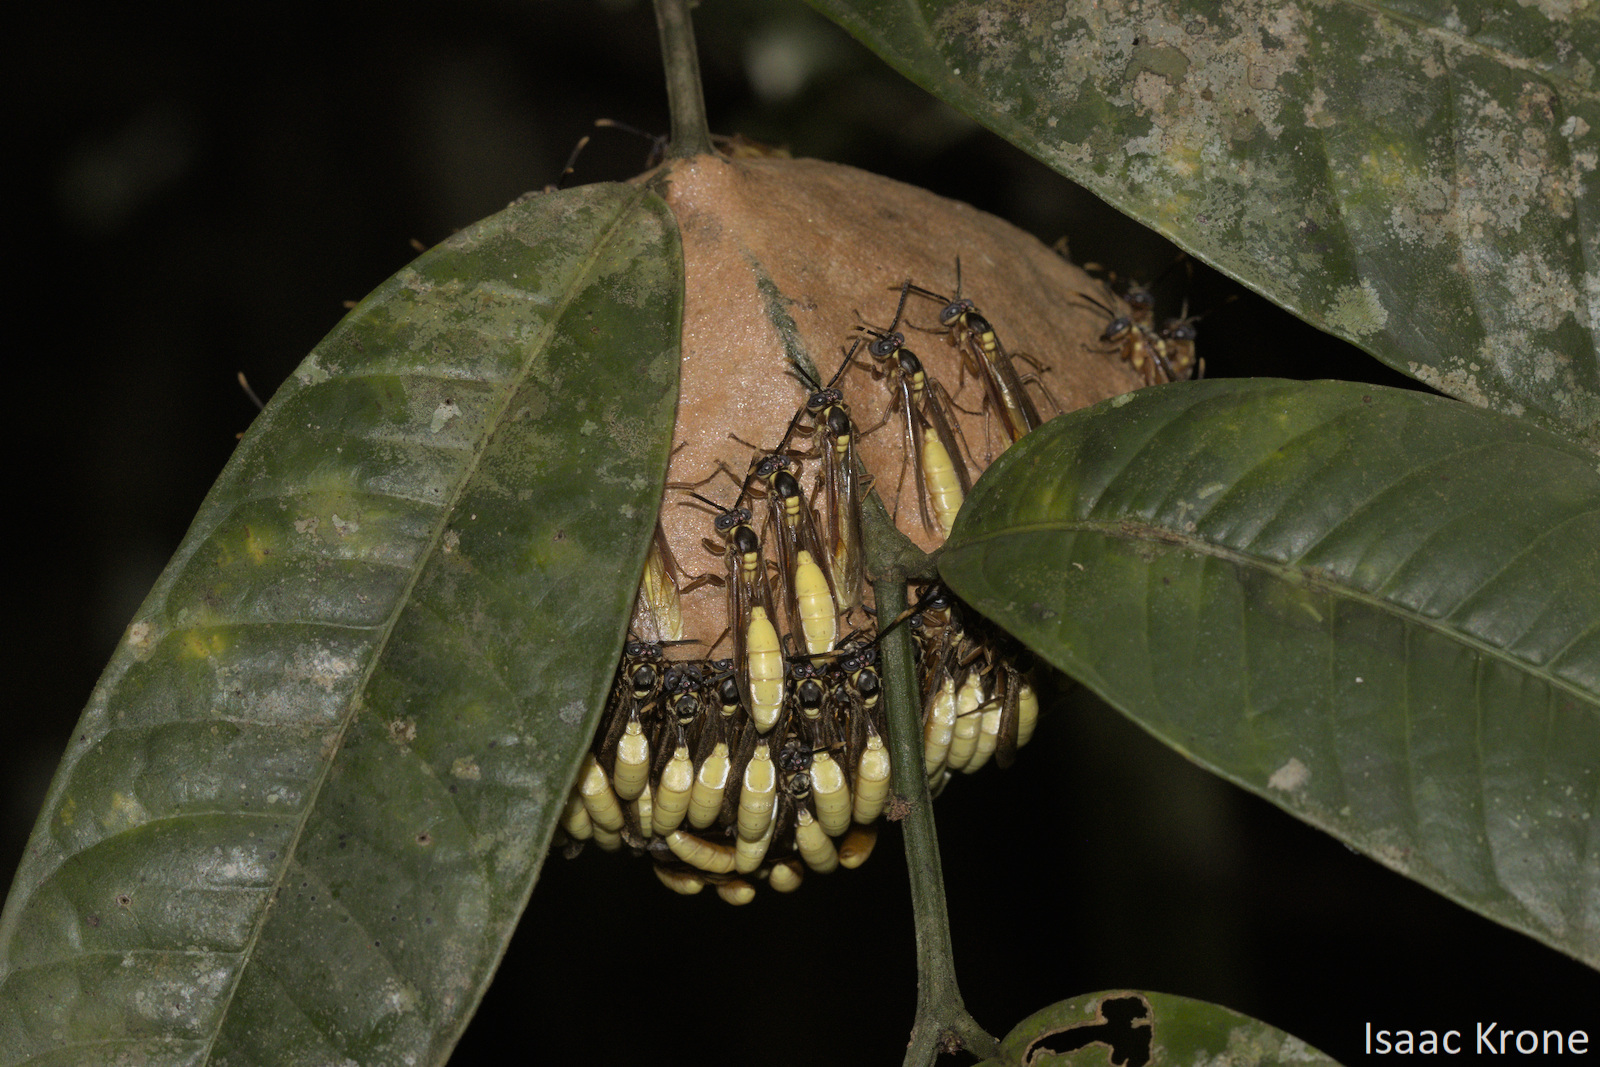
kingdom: Animalia
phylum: Arthropoda
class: Insecta
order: Hymenoptera
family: Vespidae
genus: Apoica
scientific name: Apoica pallens
